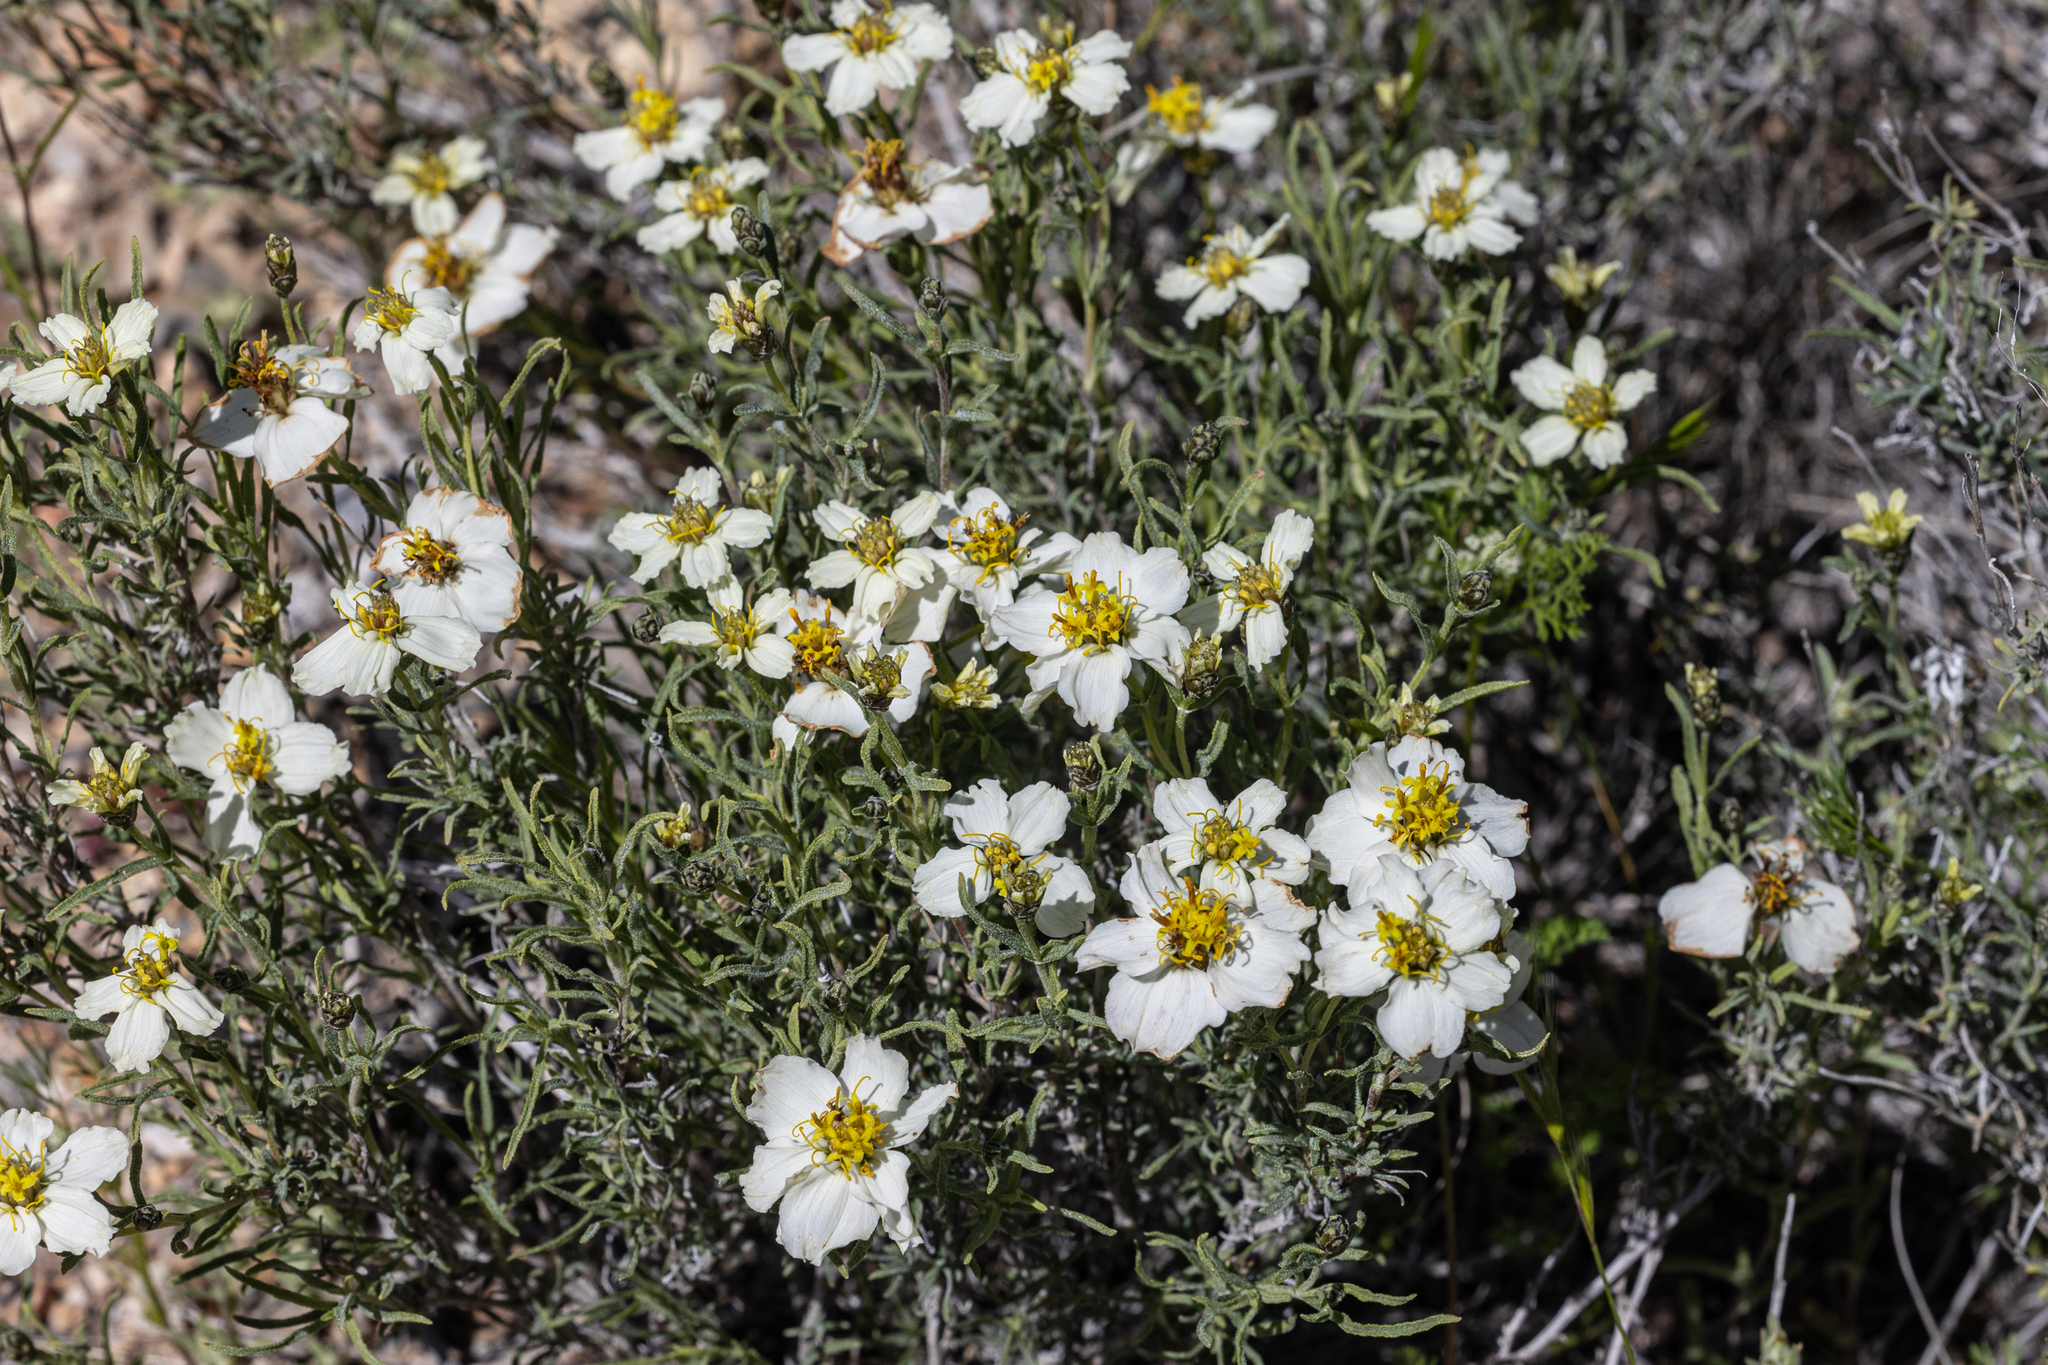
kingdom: Plantae
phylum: Tracheophyta
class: Magnoliopsida
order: Asterales
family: Asteraceae
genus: Zinnia
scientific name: Zinnia acerosa
